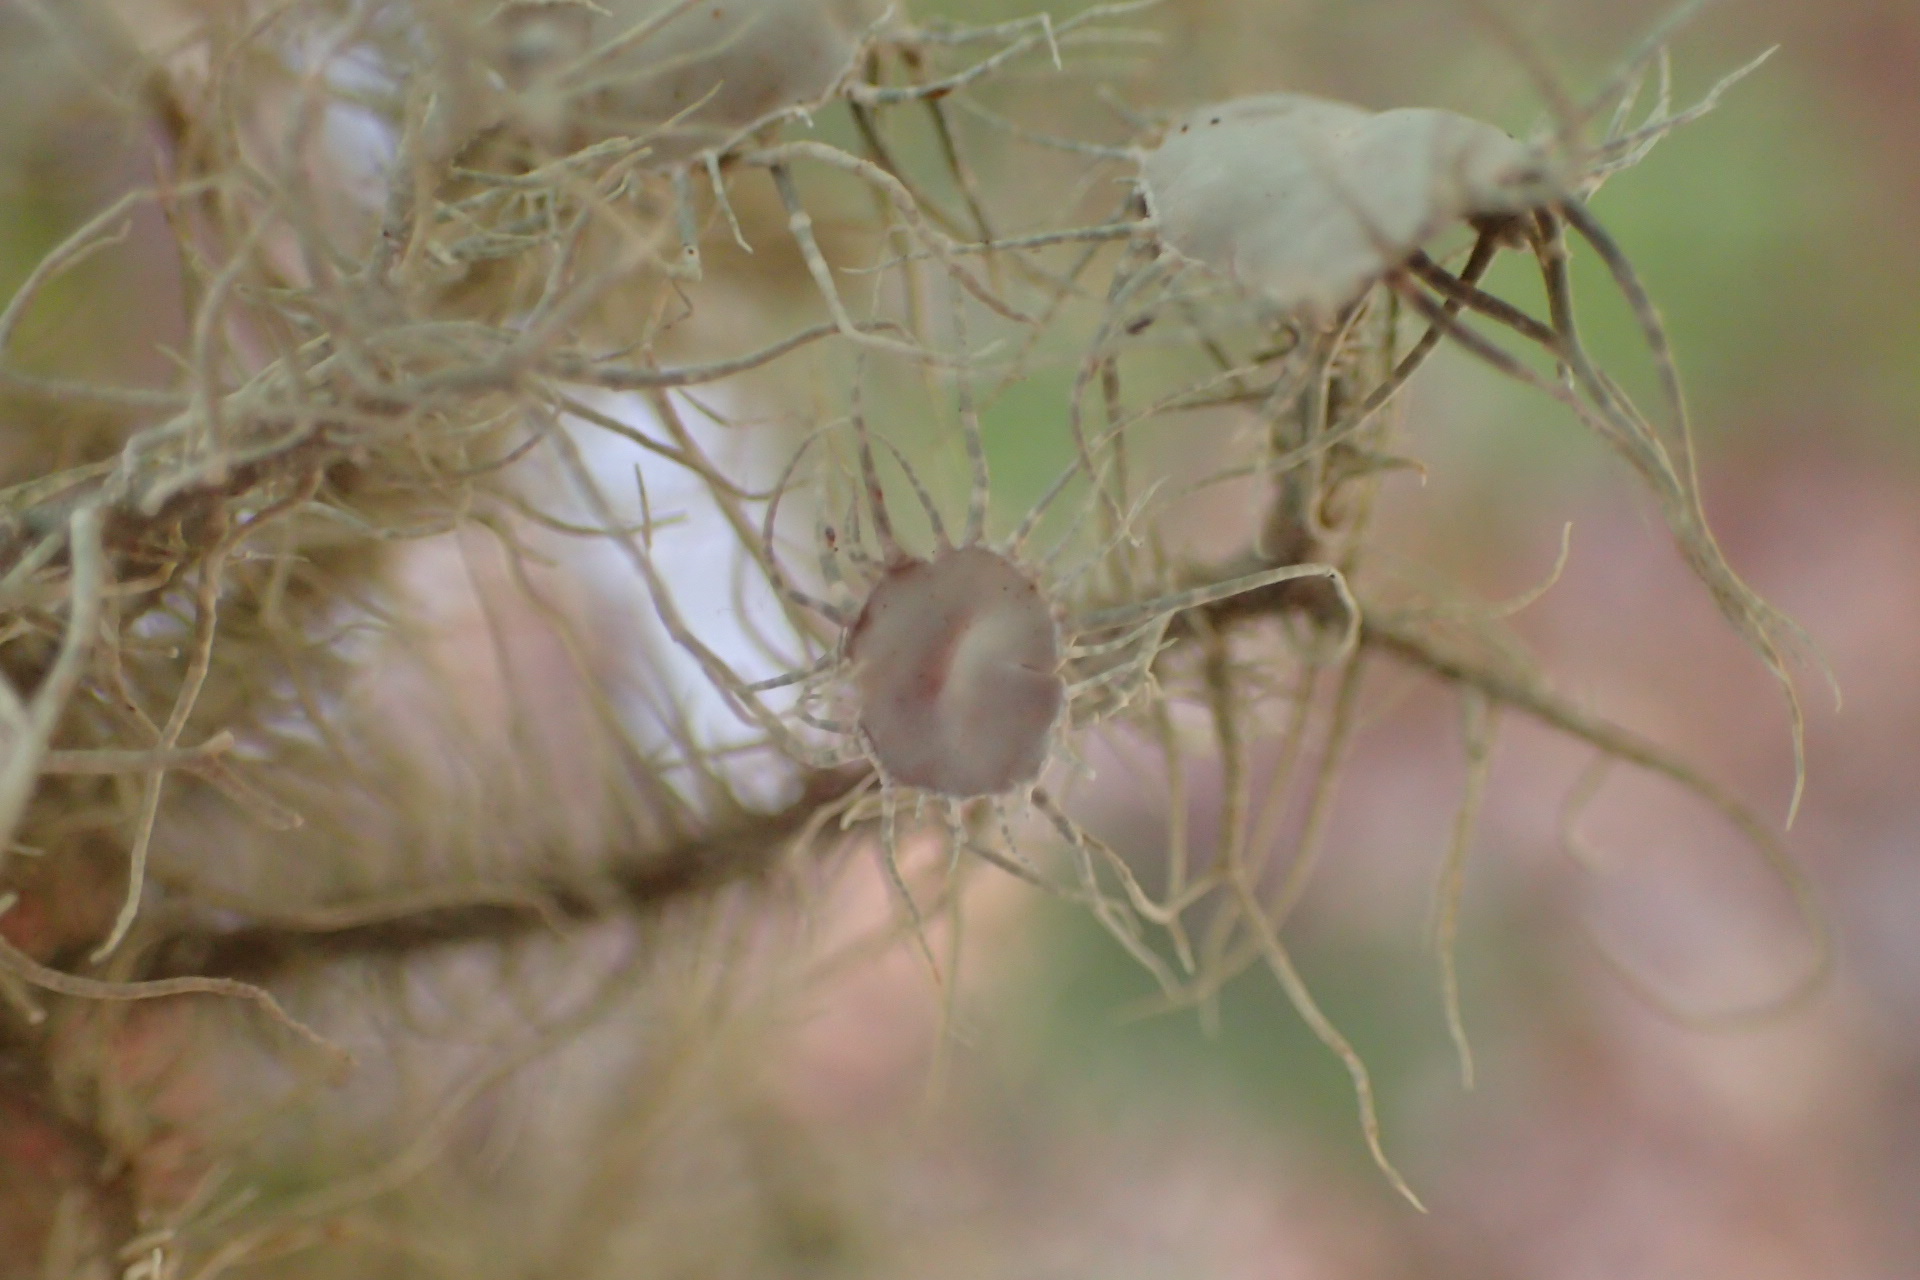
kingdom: Fungi
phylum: Ascomycota
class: Lecanoromycetes
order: Lecanorales
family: Parmeliaceae
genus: Usnea
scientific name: Usnea strigosa
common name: Bushy beard lichen
